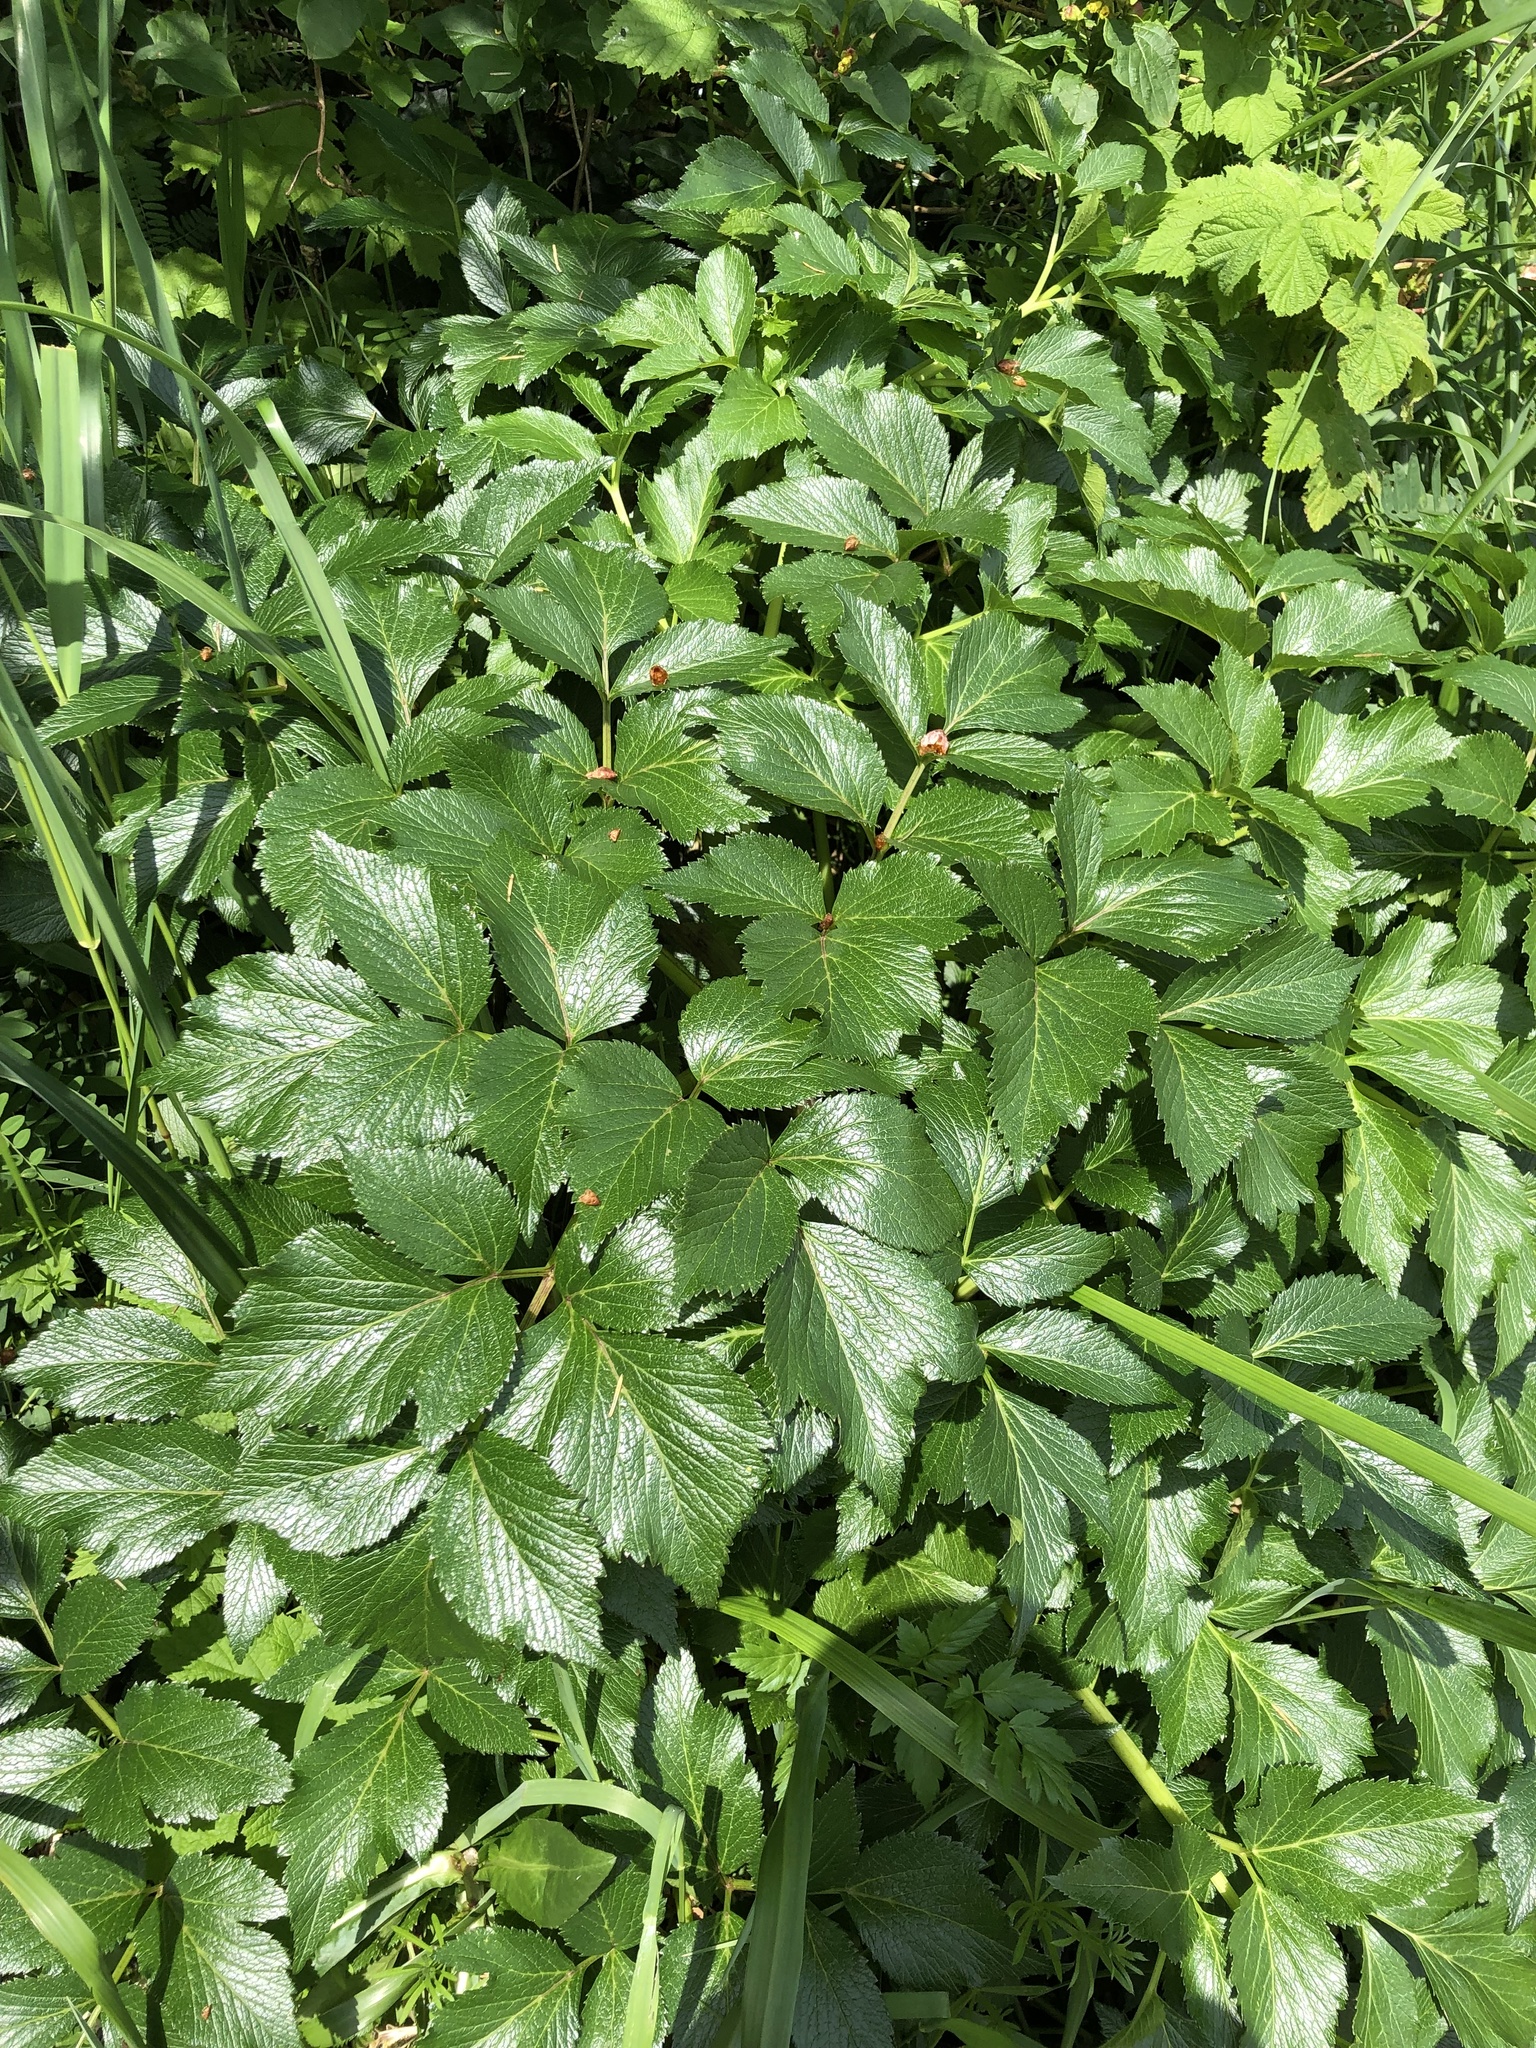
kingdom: Plantae
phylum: Tracheophyta
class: Magnoliopsida
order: Apiales
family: Apiaceae
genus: Angelica
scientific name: Angelica lucida
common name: Seabeach angelica
